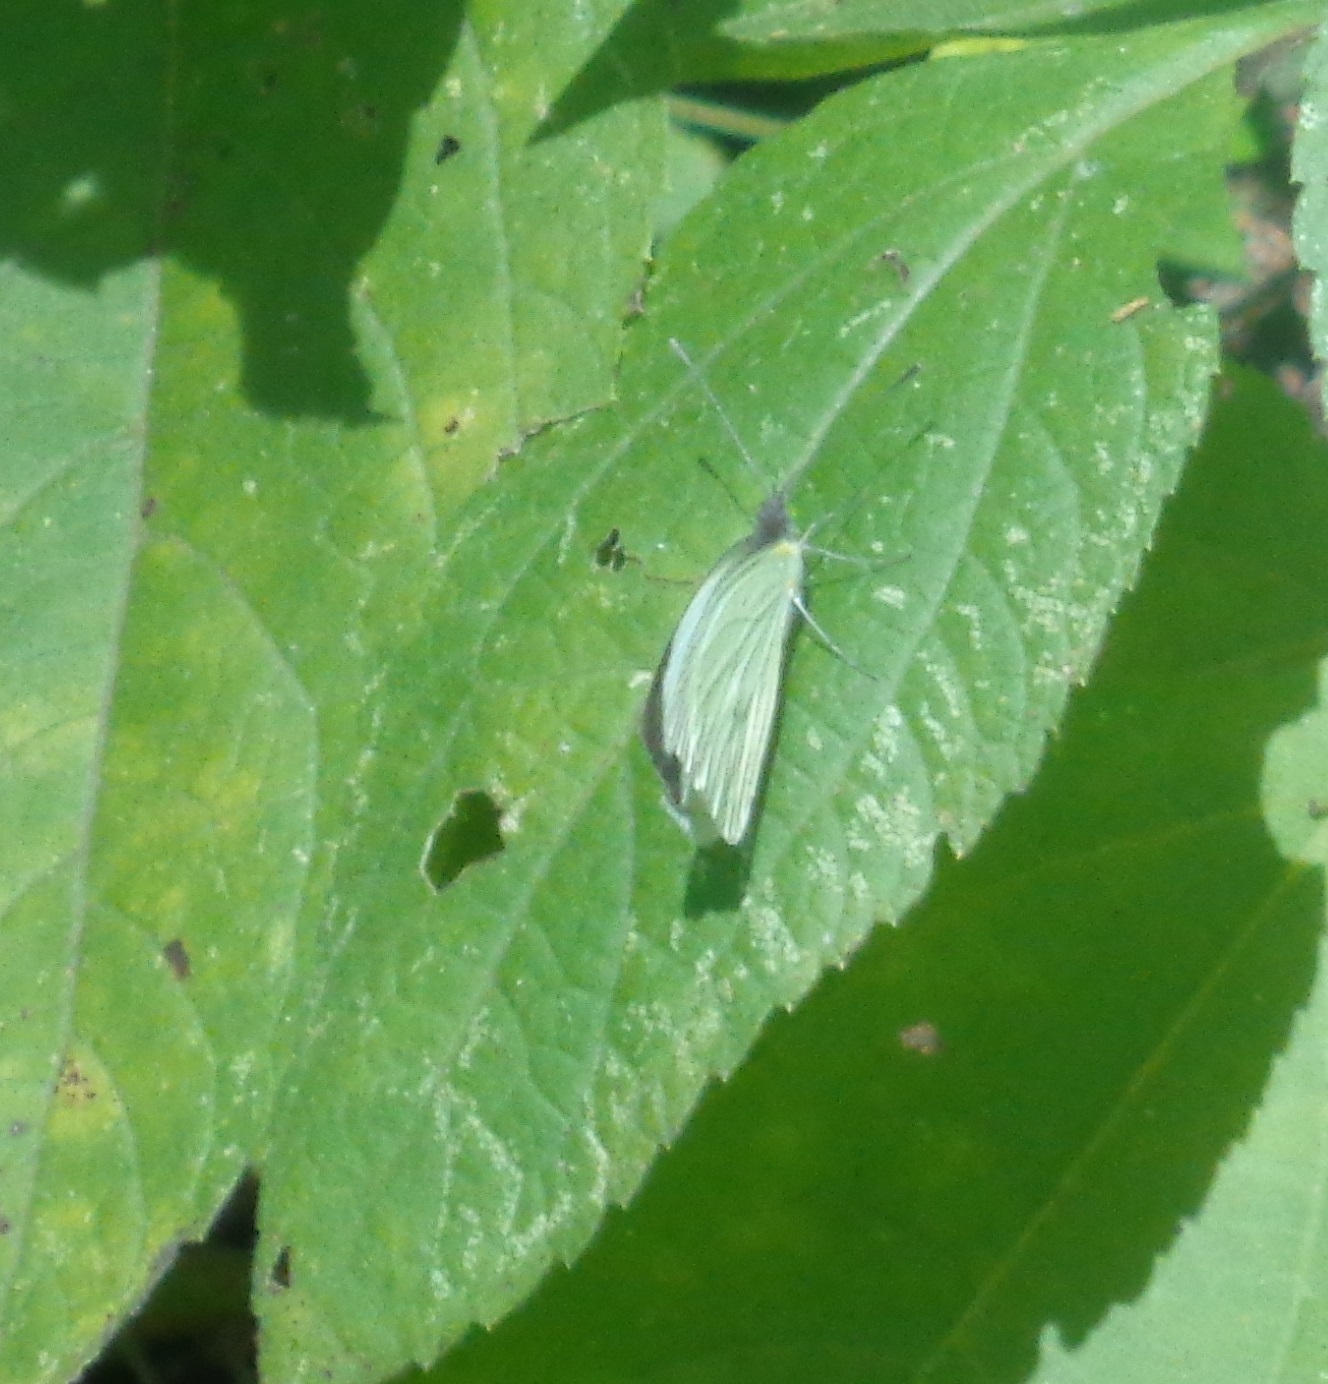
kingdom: Animalia
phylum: Arthropoda
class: Insecta
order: Lepidoptera
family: Pieridae
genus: Leptophobia
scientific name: Leptophobia aripa
